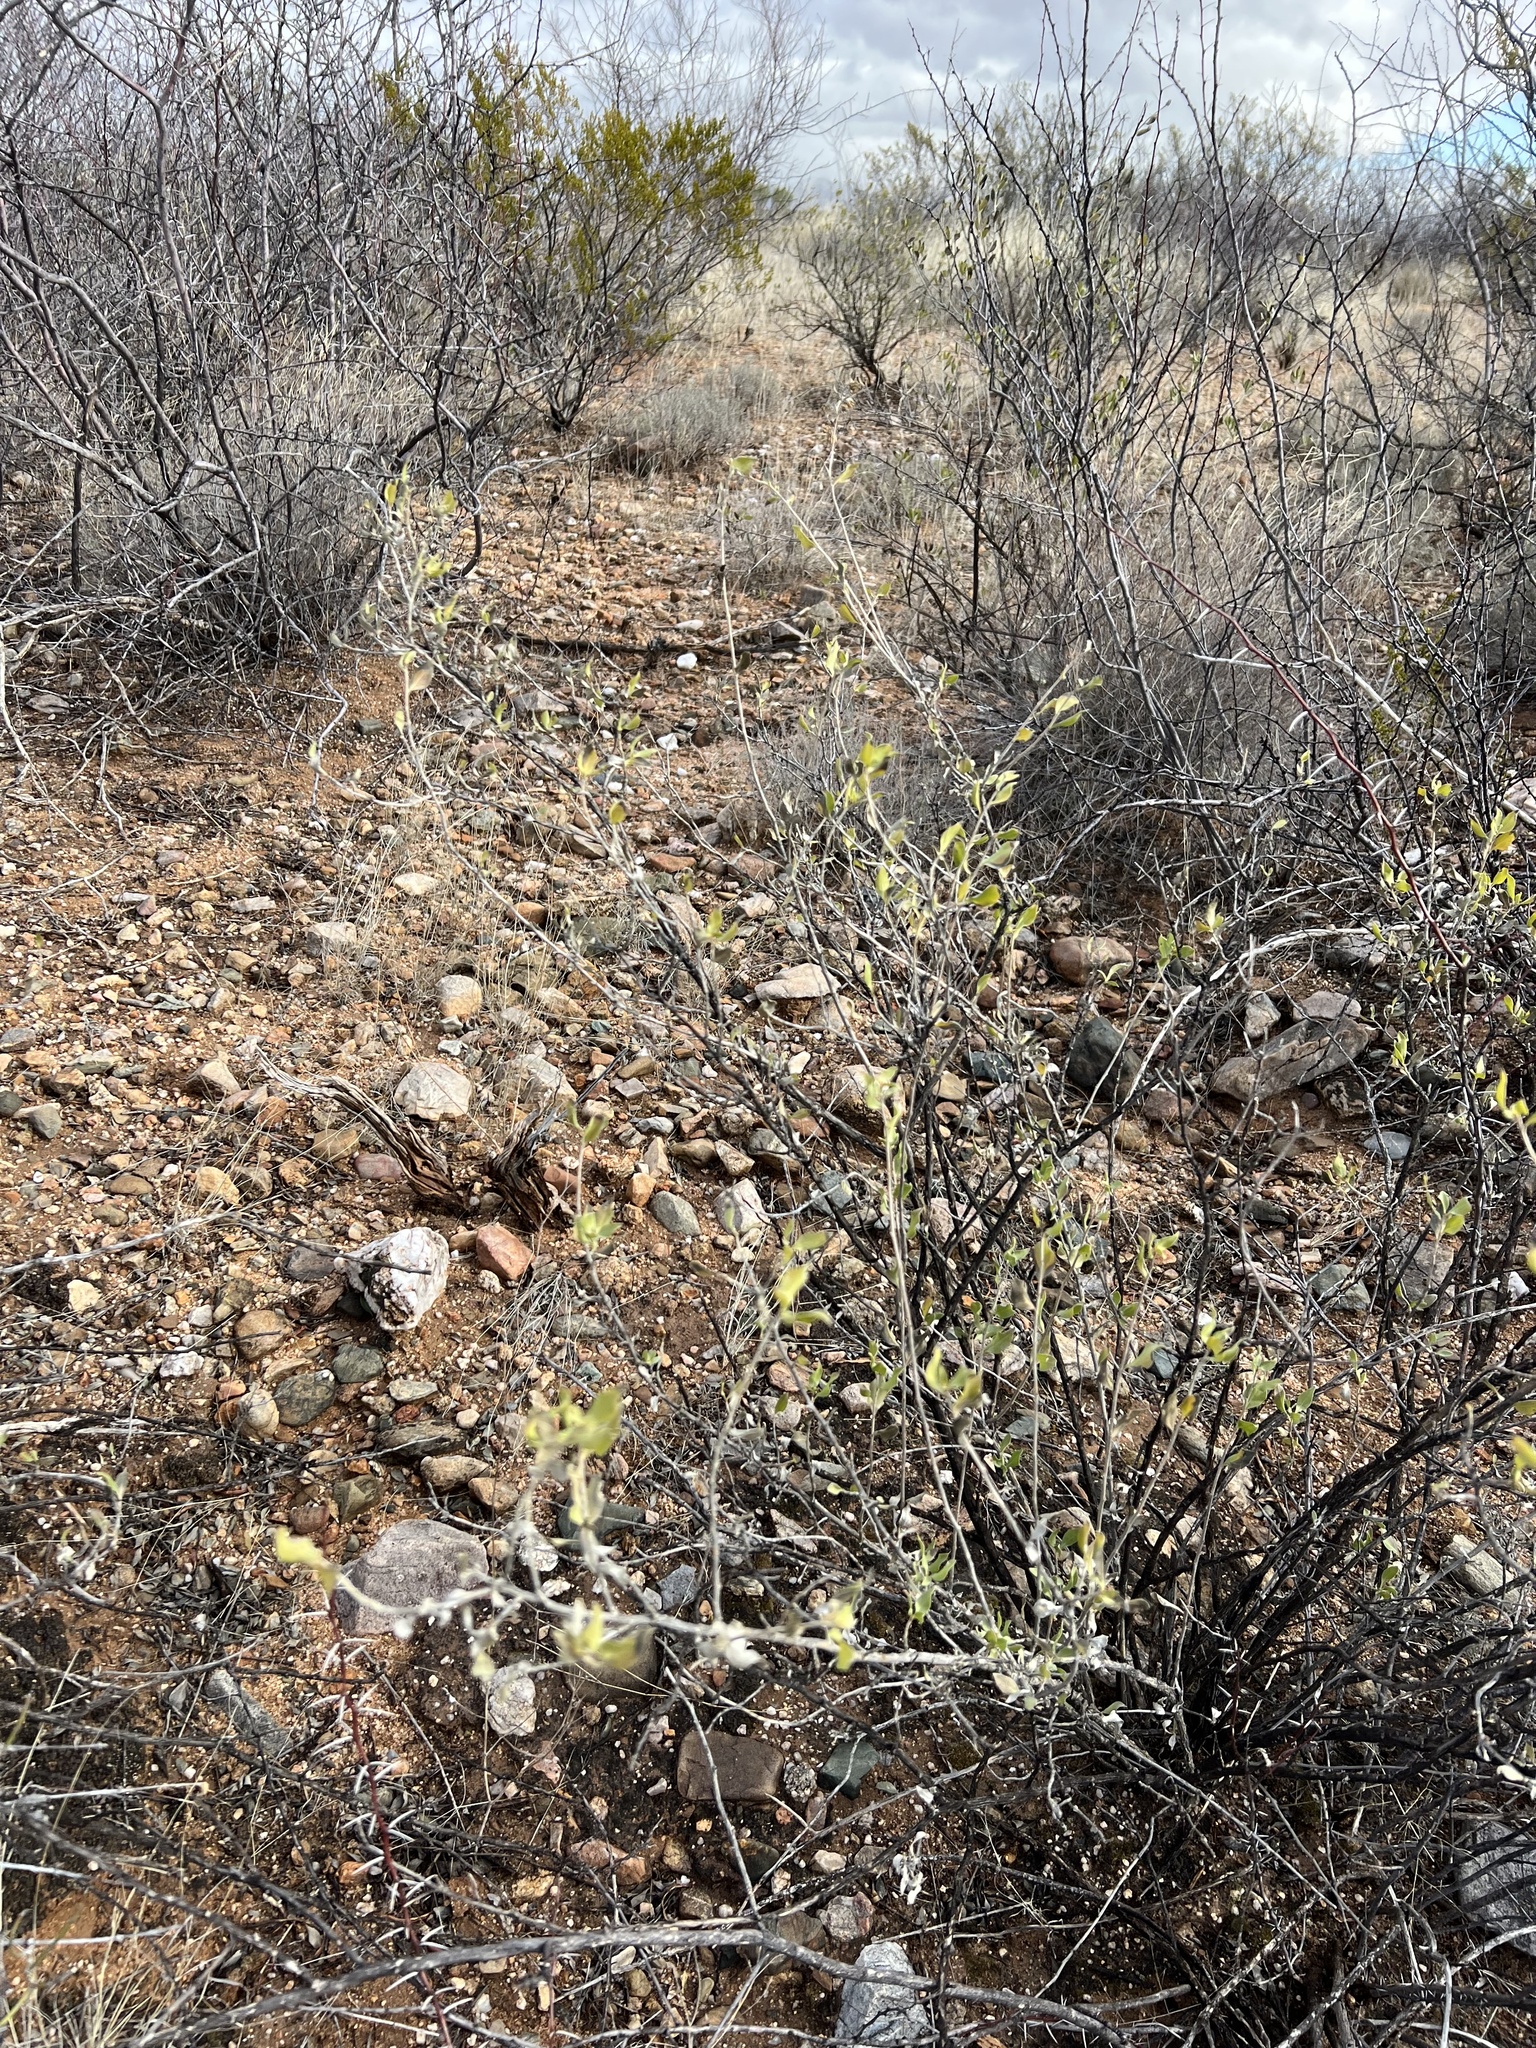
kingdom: Plantae
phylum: Tracheophyta
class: Magnoliopsida
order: Asterales
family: Asteraceae
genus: Flourensia
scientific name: Flourensia cernua
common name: Varnishbush
